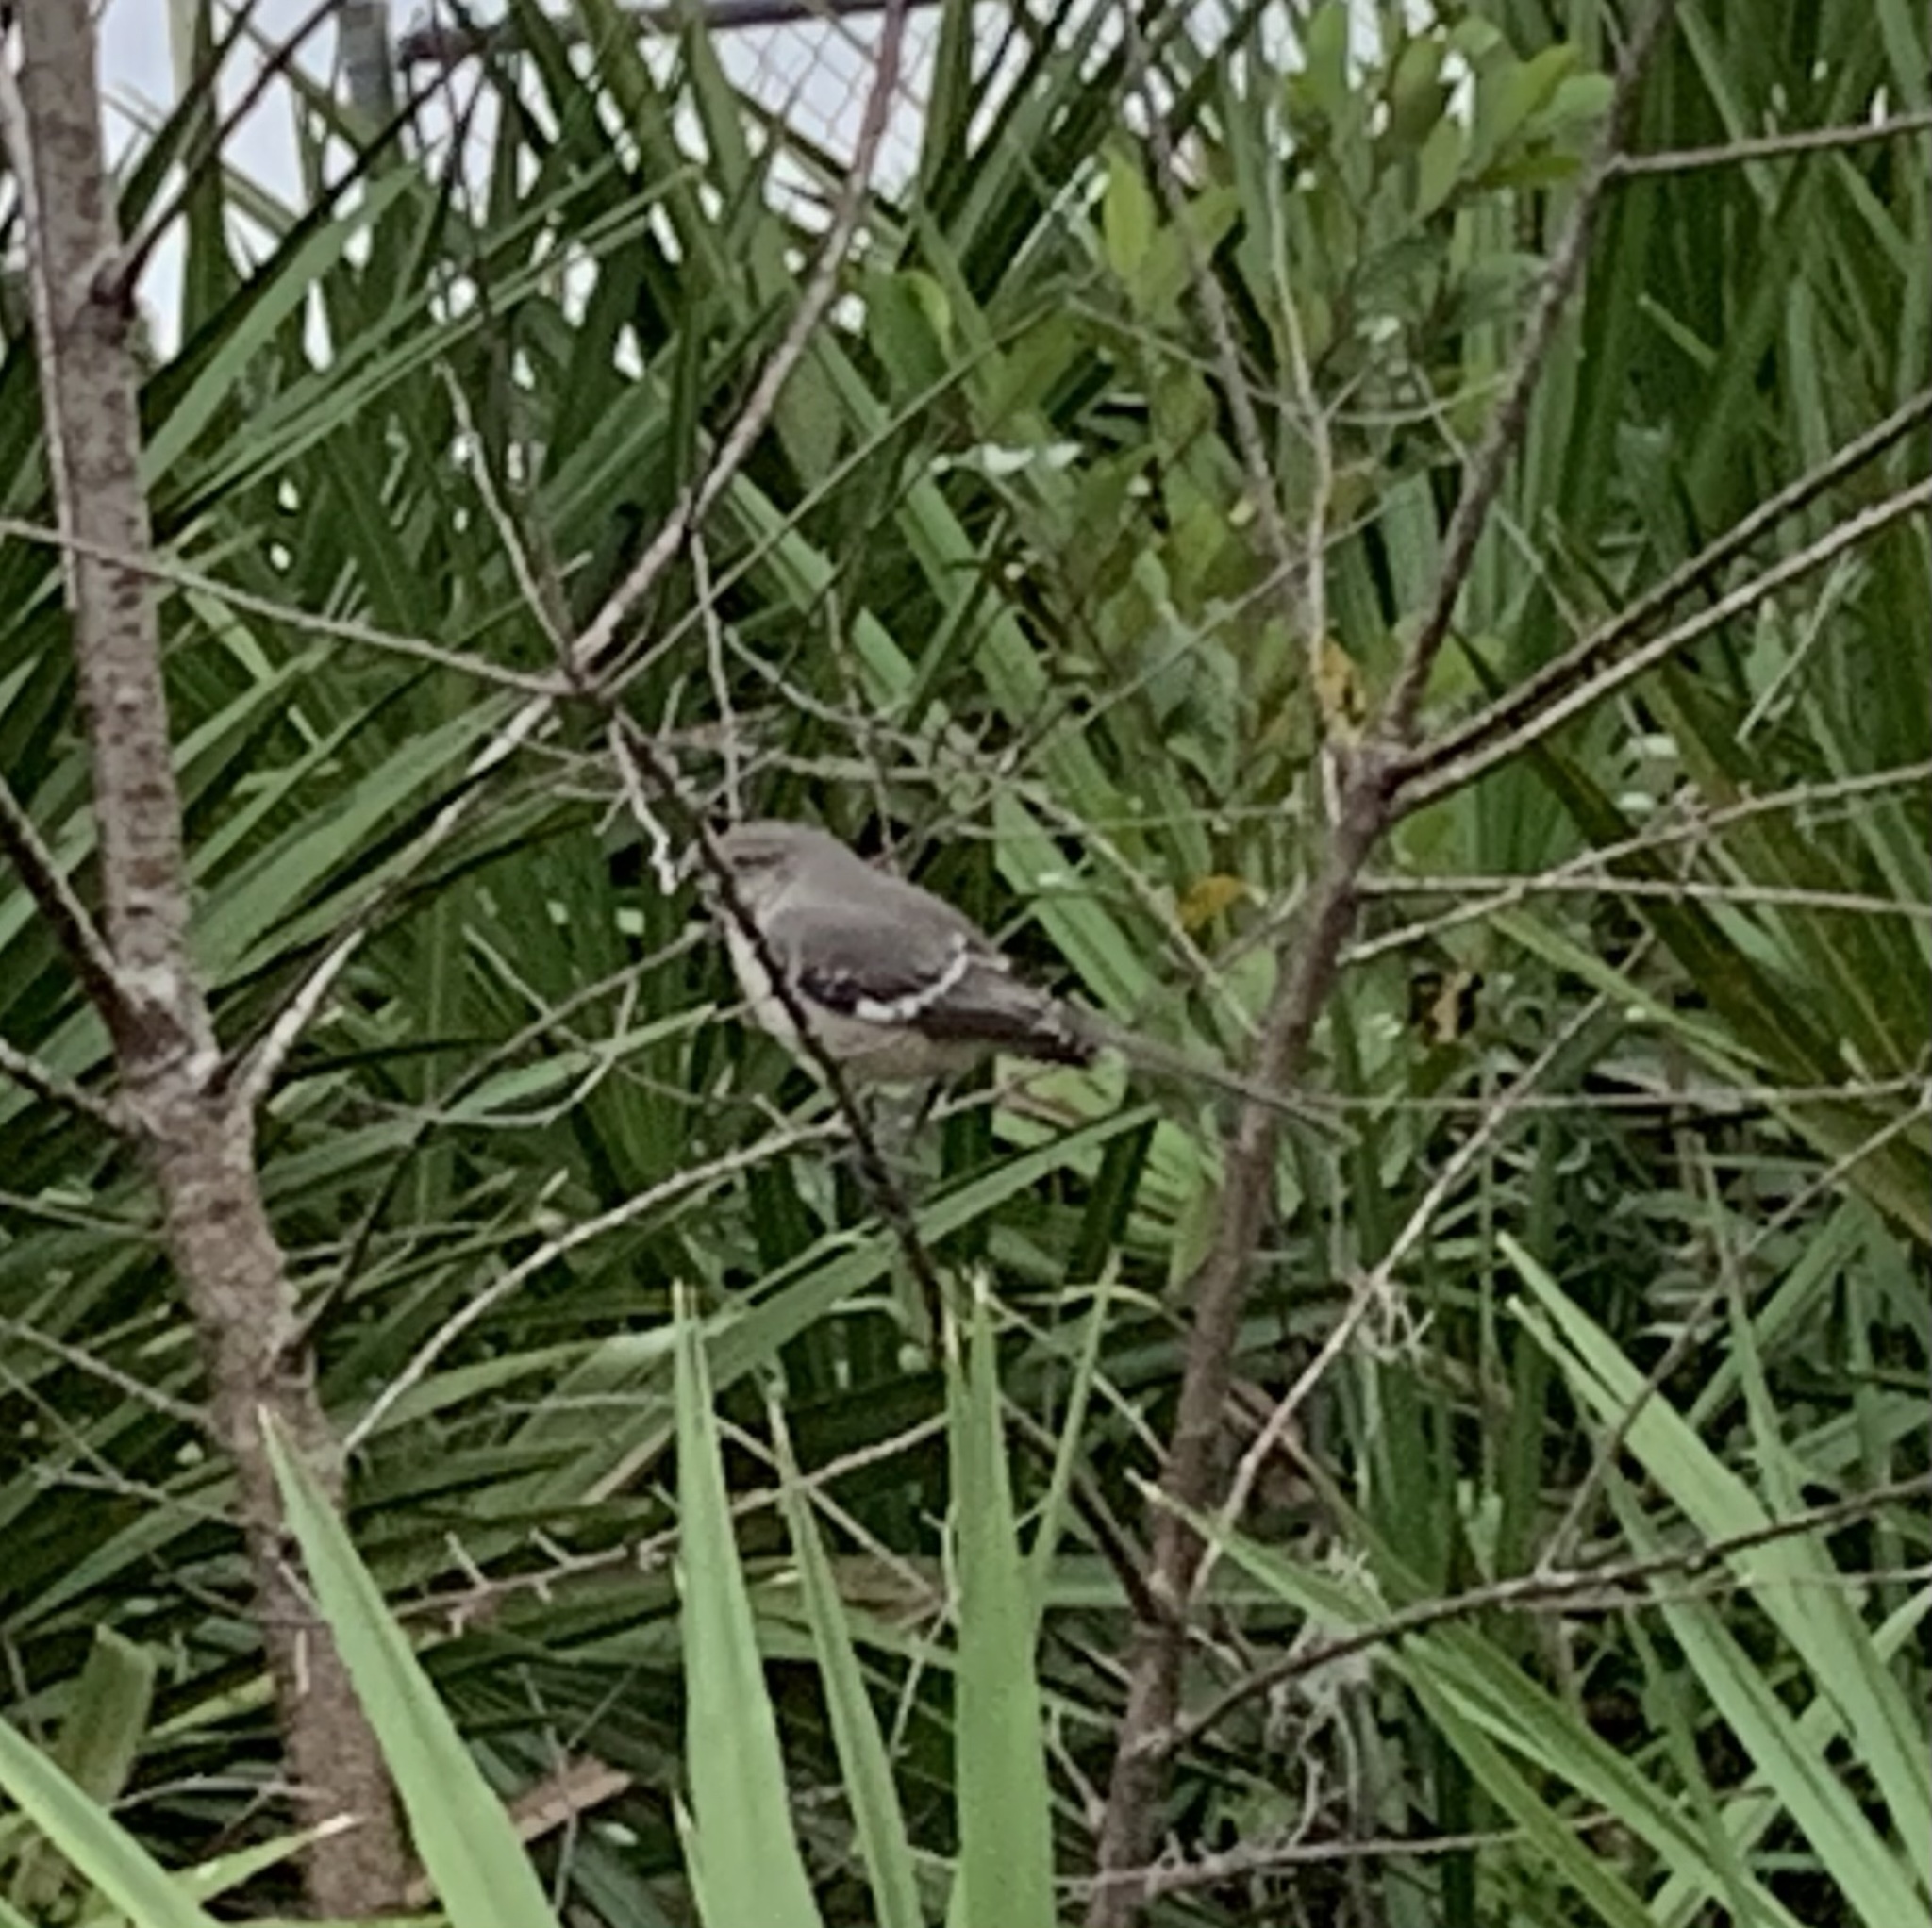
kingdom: Animalia
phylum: Chordata
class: Aves
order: Passeriformes
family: Mimidae
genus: Mimus
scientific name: Mimus polyglottos
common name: Northern mockingbird
